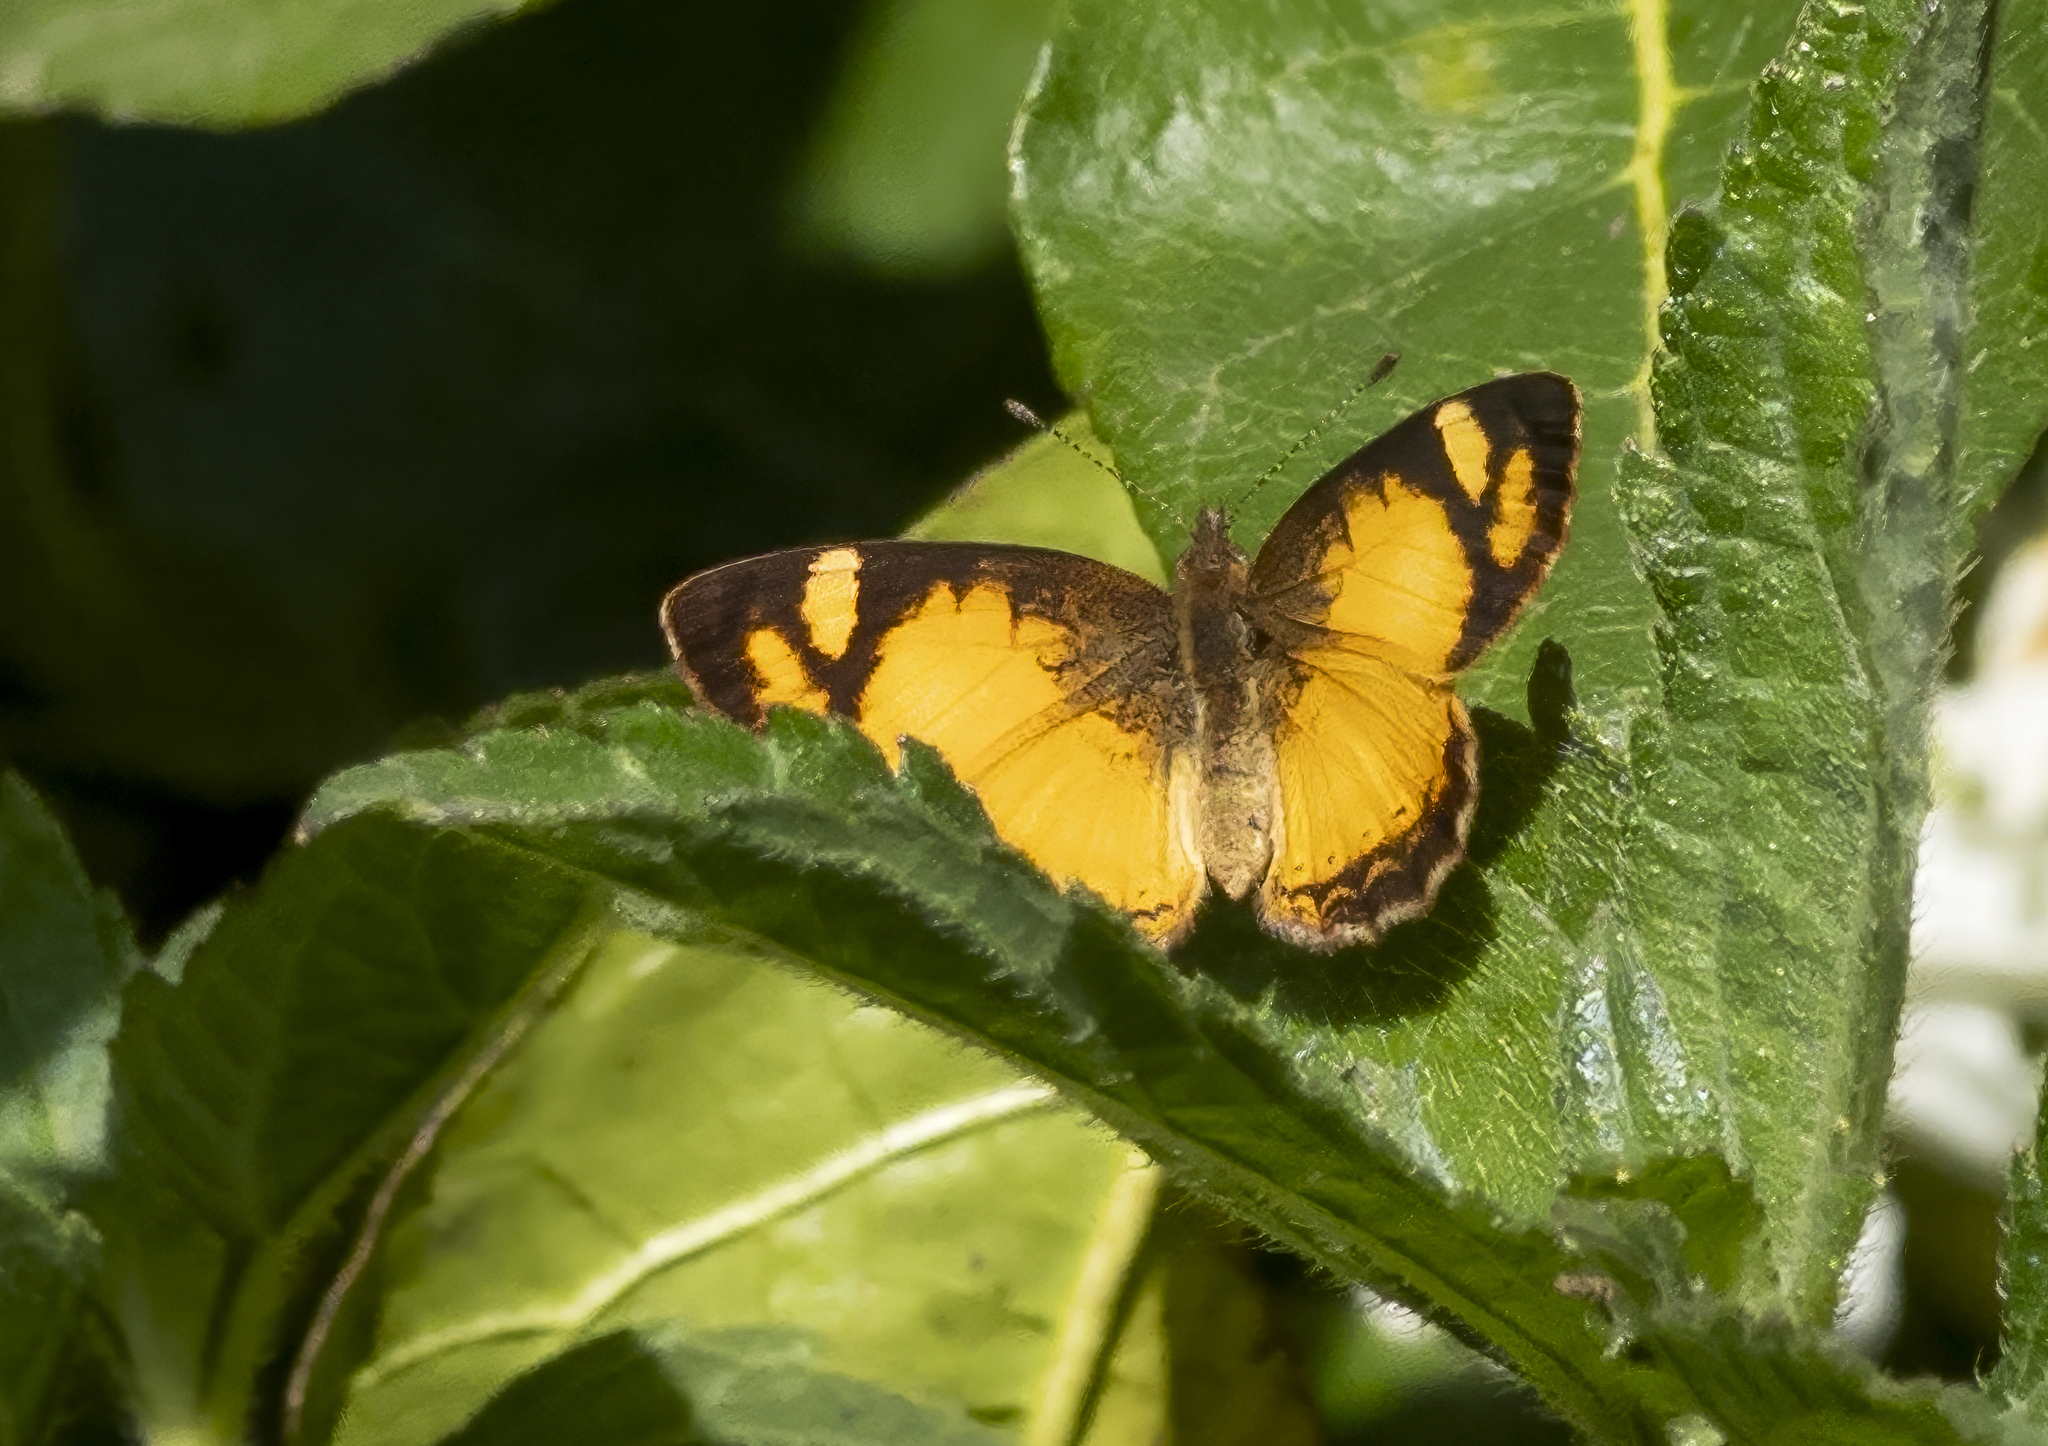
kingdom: Animalia
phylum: Arthropoda
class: Insecta
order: Lepidoptera
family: Nymphalidae
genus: Tegosa
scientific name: Tegosa claudina
